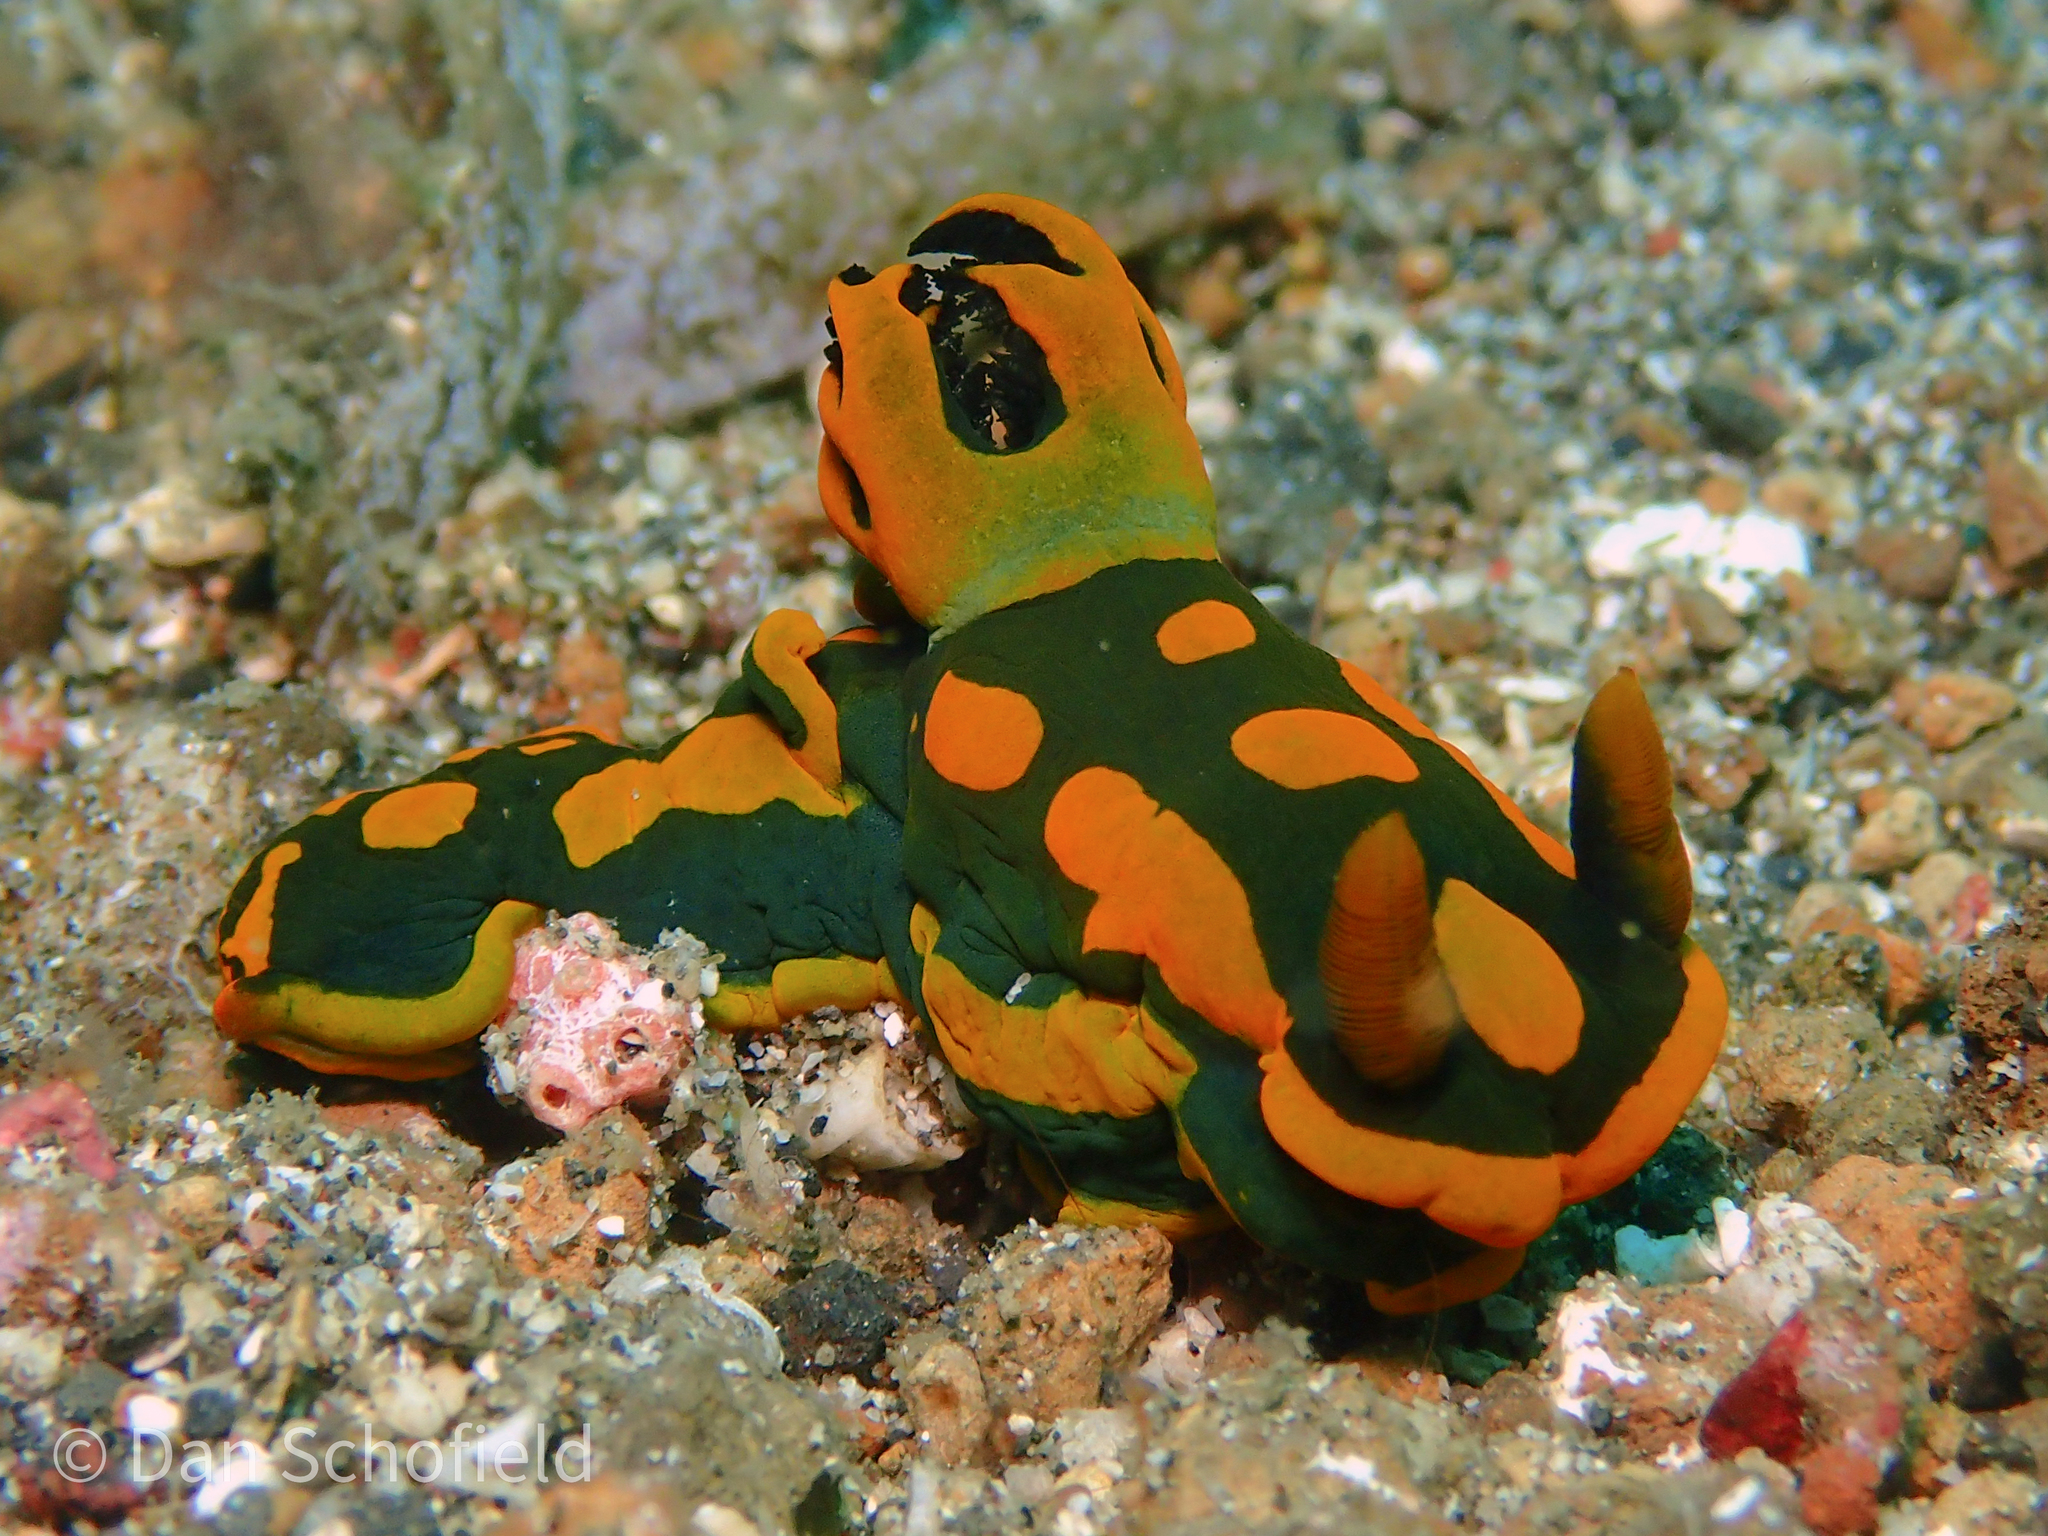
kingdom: Animalia
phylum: Mollusca
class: Gastropoda
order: Nudibranchia
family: Polyceridae
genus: Tambja
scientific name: Tambja gabrielae
